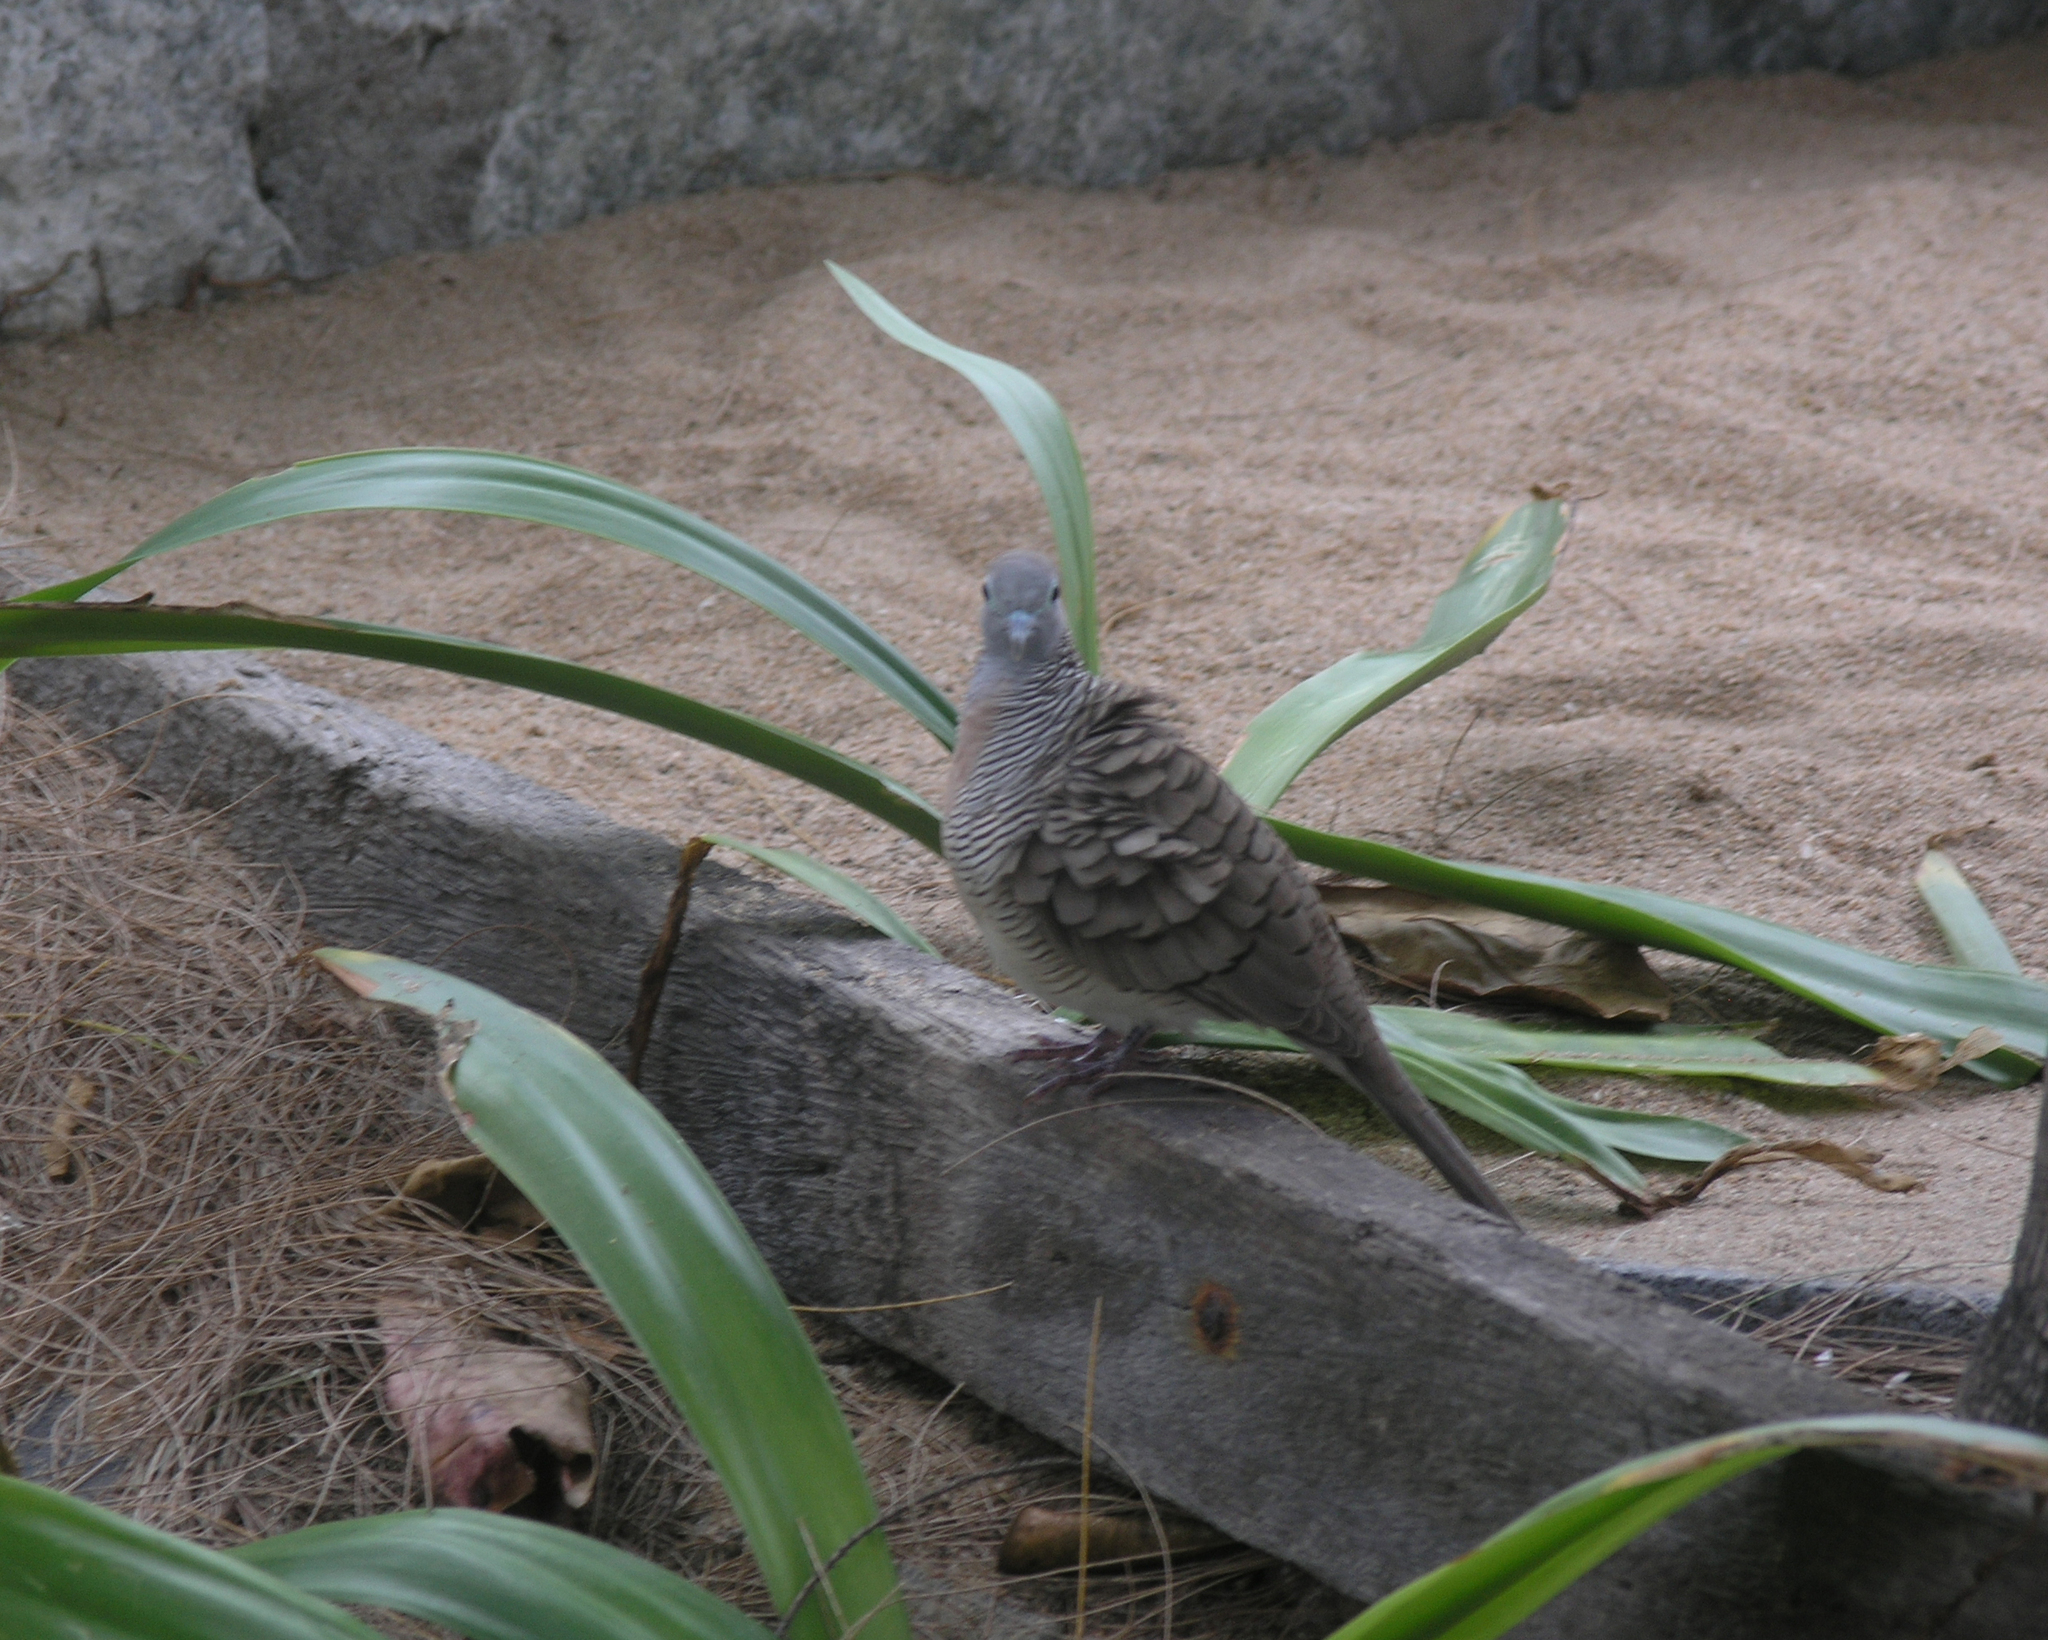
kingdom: Animalia
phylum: Chordata
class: Aves
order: Columbiformes
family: Columbidae
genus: Geopelia
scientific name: Geopelia striata
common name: Zebra dove
